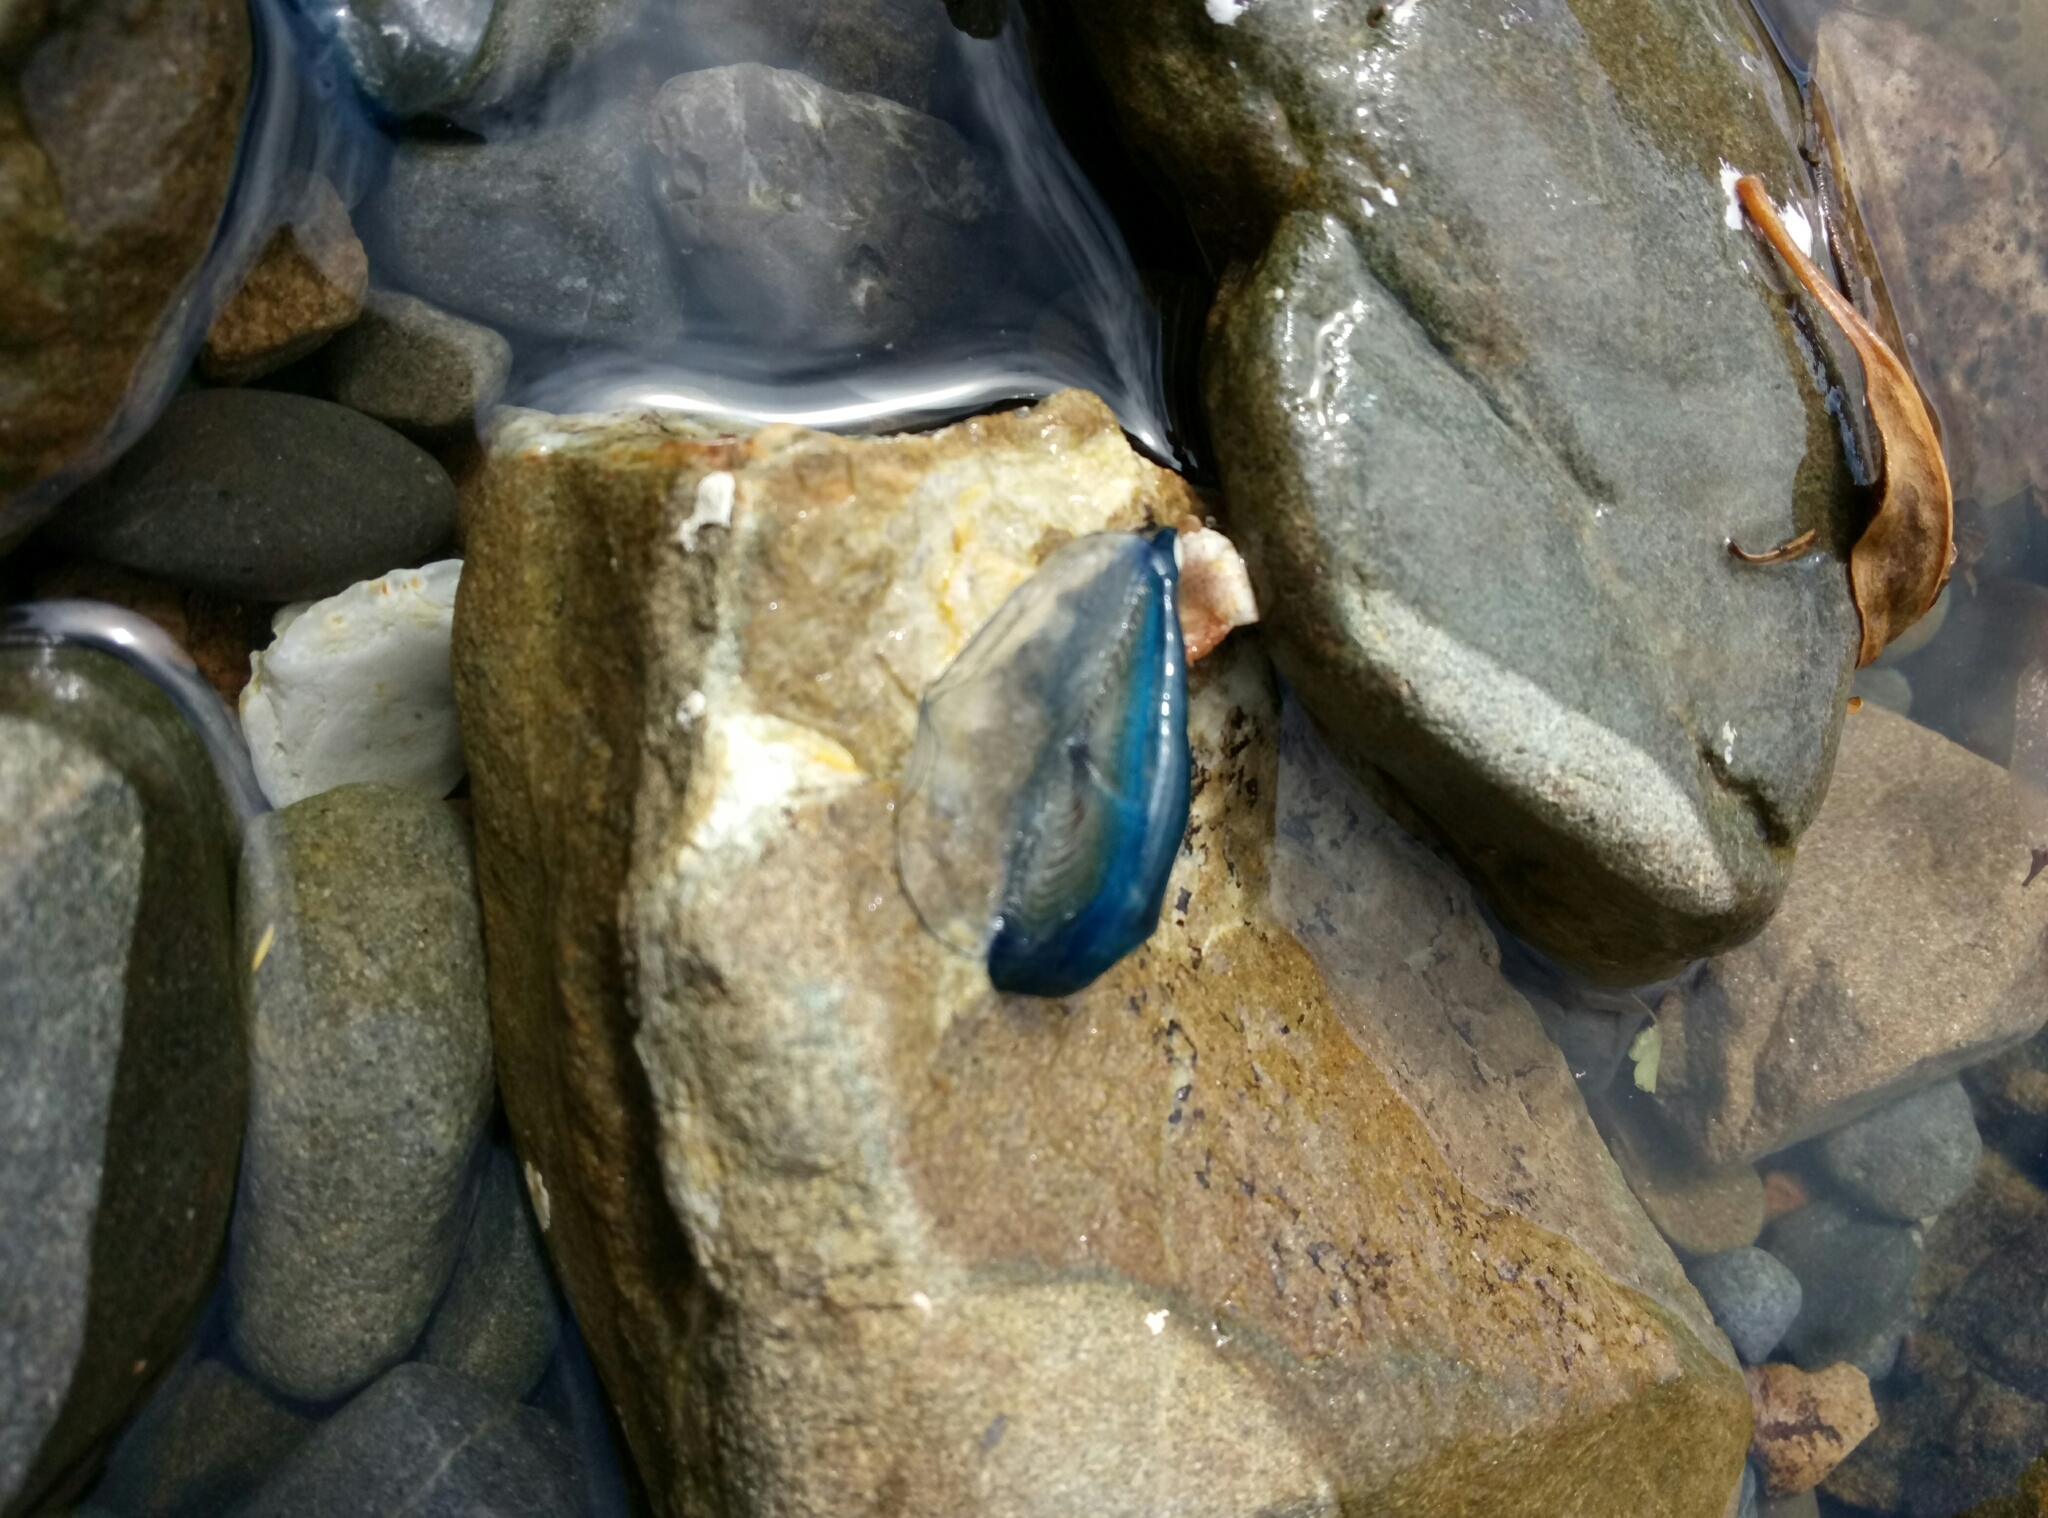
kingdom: Animalia
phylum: Cnidaria
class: Hydrozoa
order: Anthoathecata
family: Porpitidae
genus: Velella
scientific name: Velella velella
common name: By-the-wind-sailor
